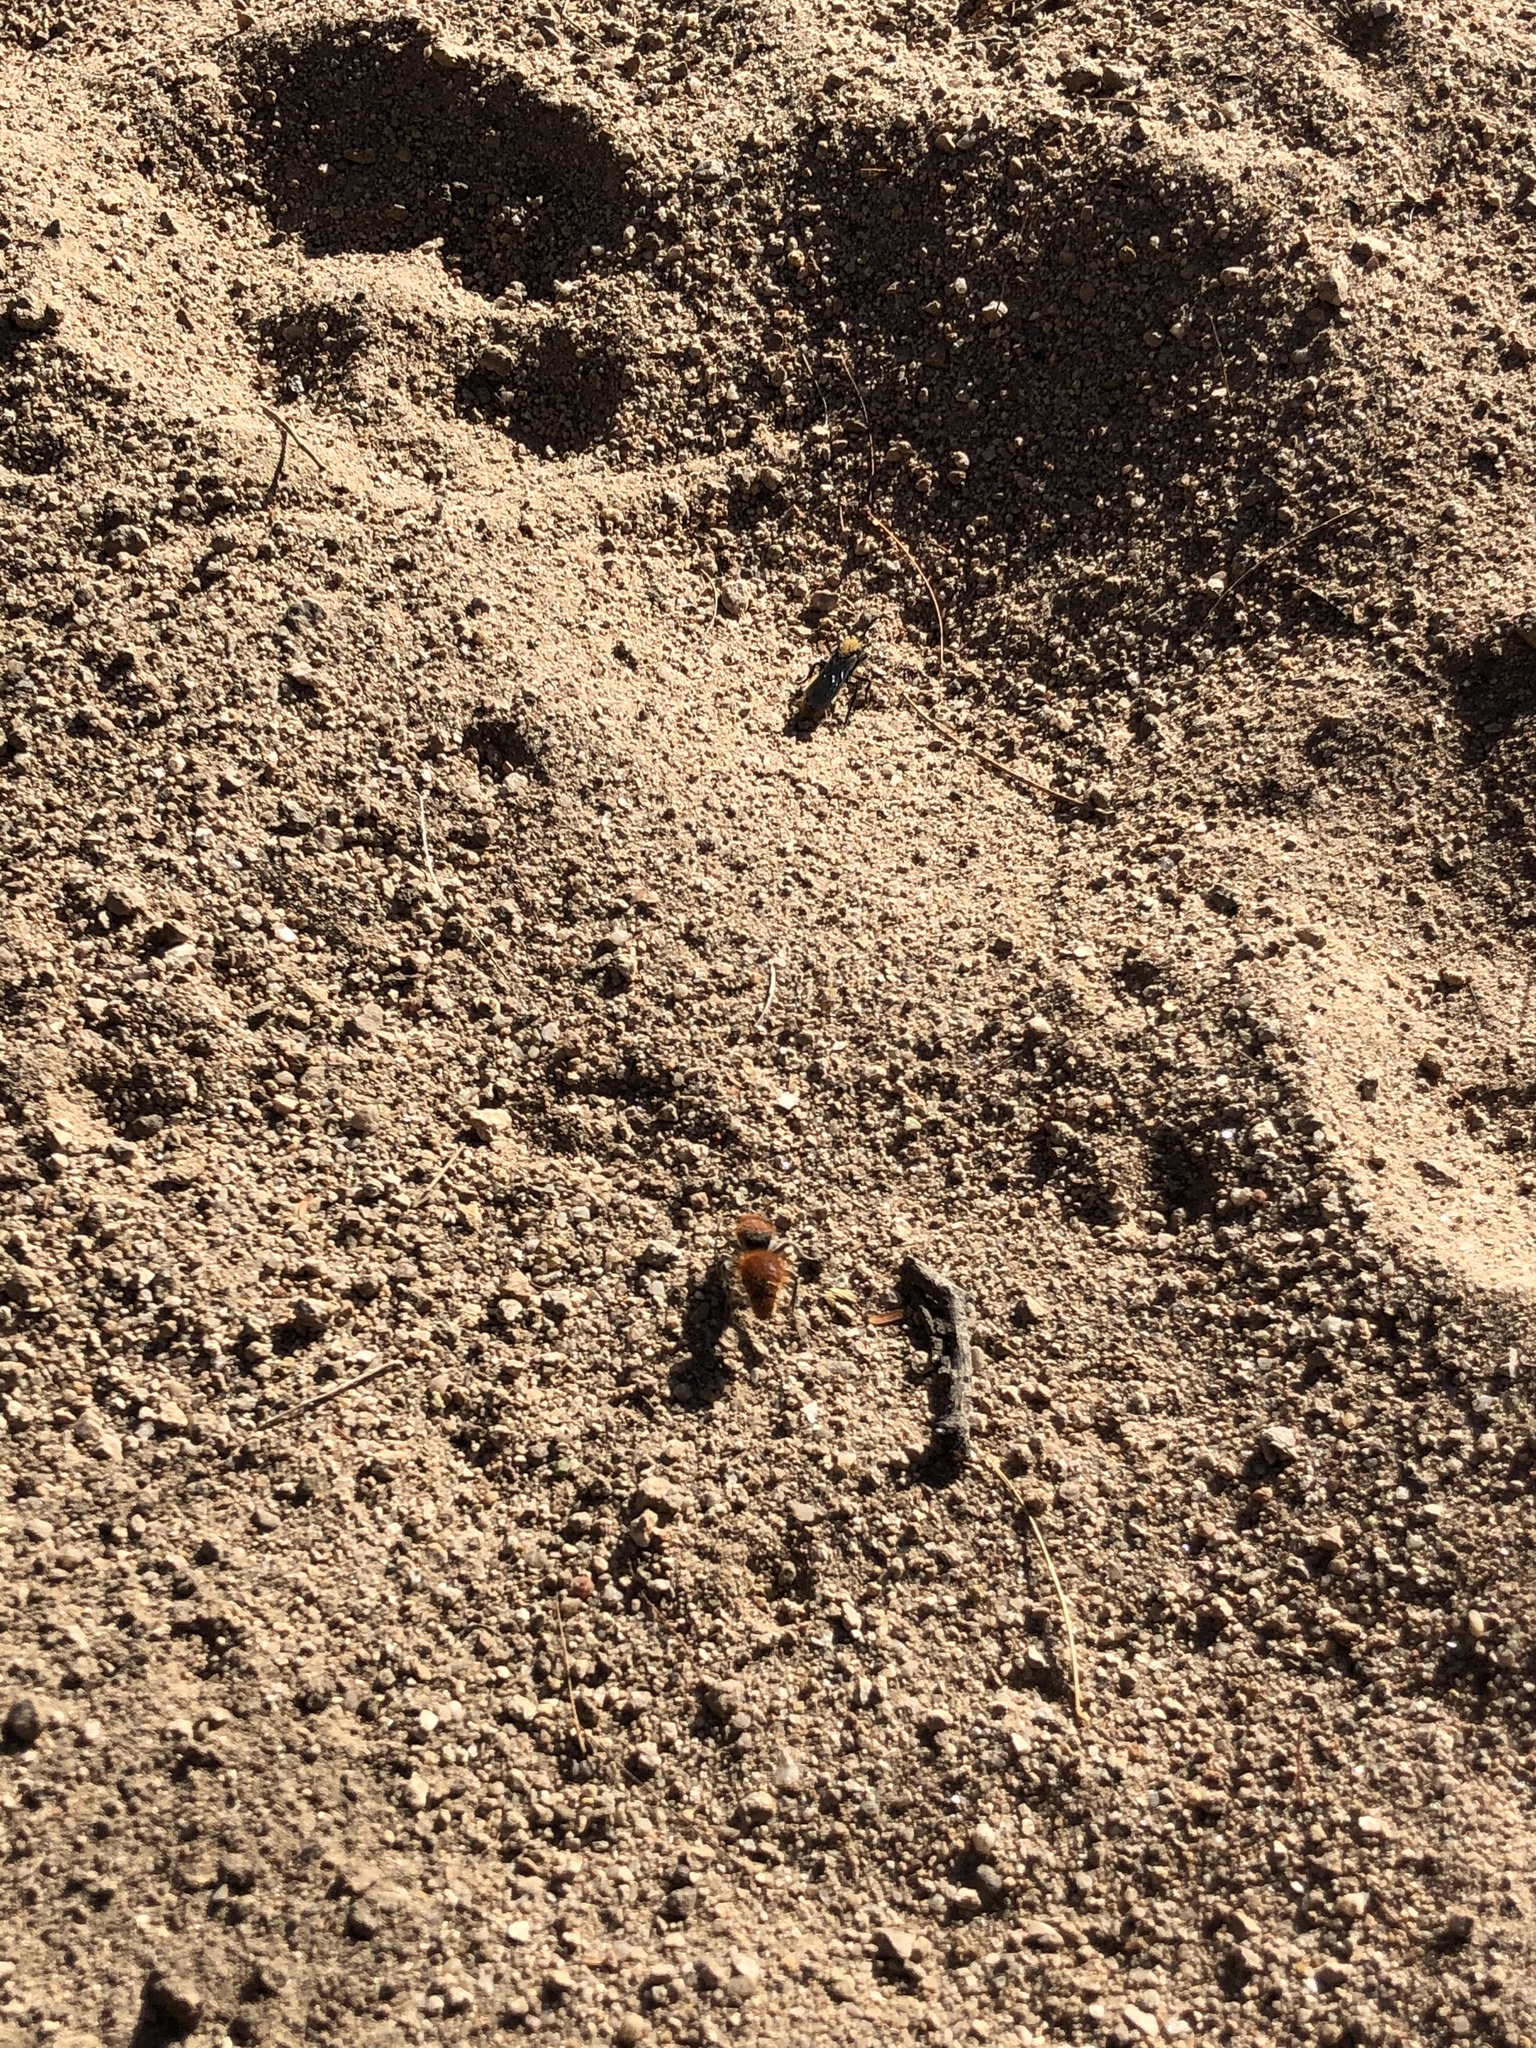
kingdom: Animalia
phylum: Arthropoda
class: Insecta
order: Hymenoptera
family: Mutillidae
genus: Dasymutilla
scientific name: Dasymutilla
